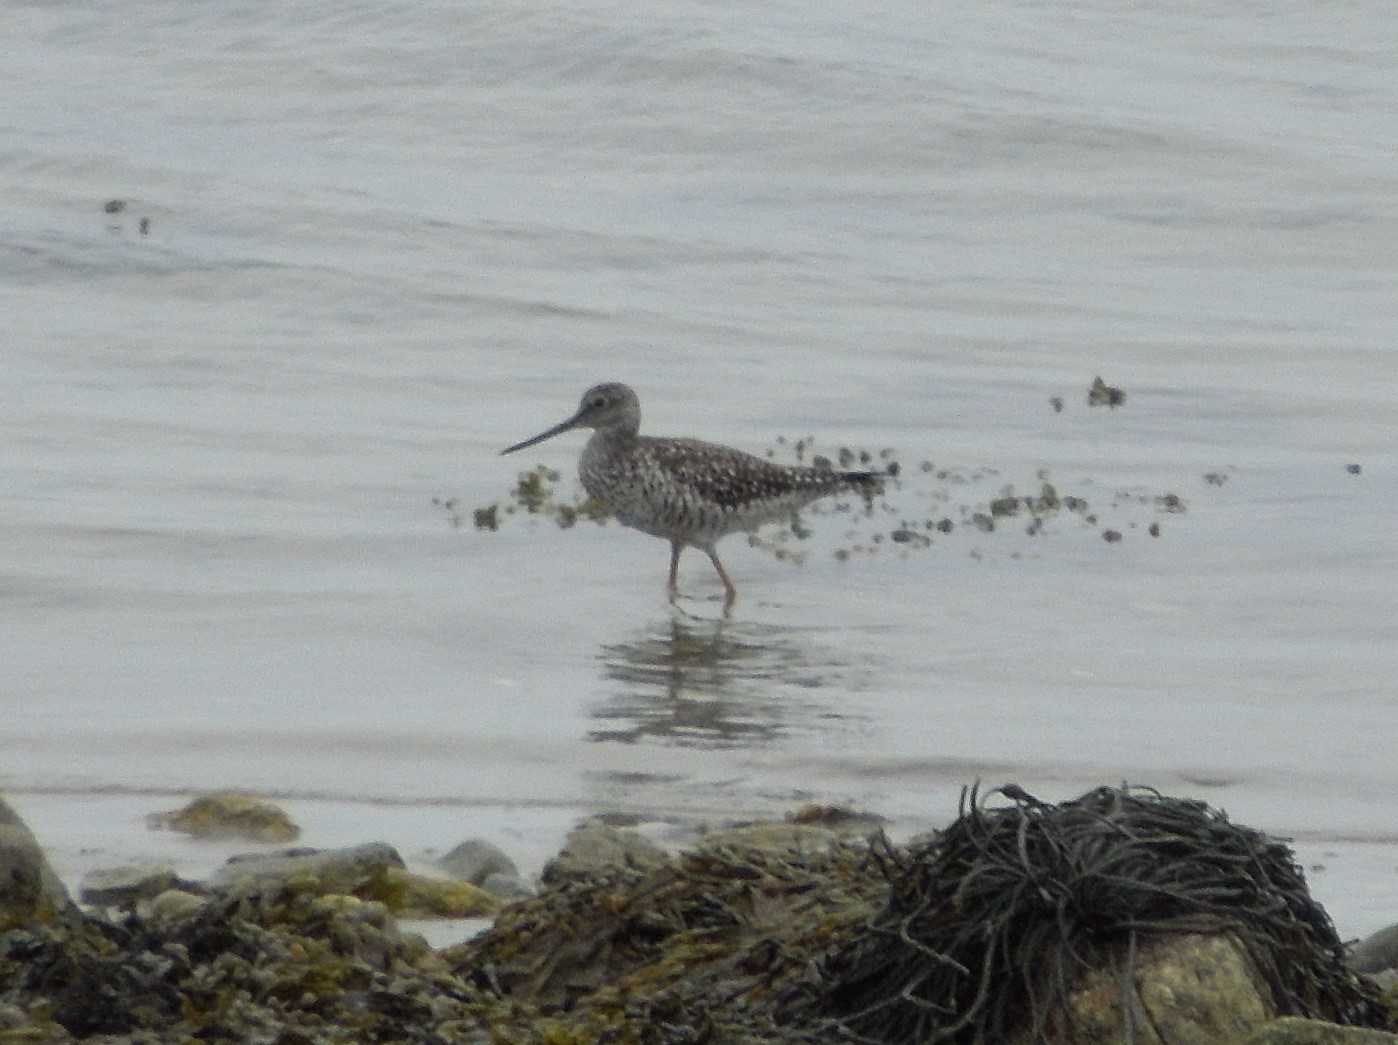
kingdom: Animalia
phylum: Chordata
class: Aves
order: Charadriiformes
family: Scolopacidae
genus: Tringa
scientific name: Tringa melanoleuca
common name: Greater yellowlegs
